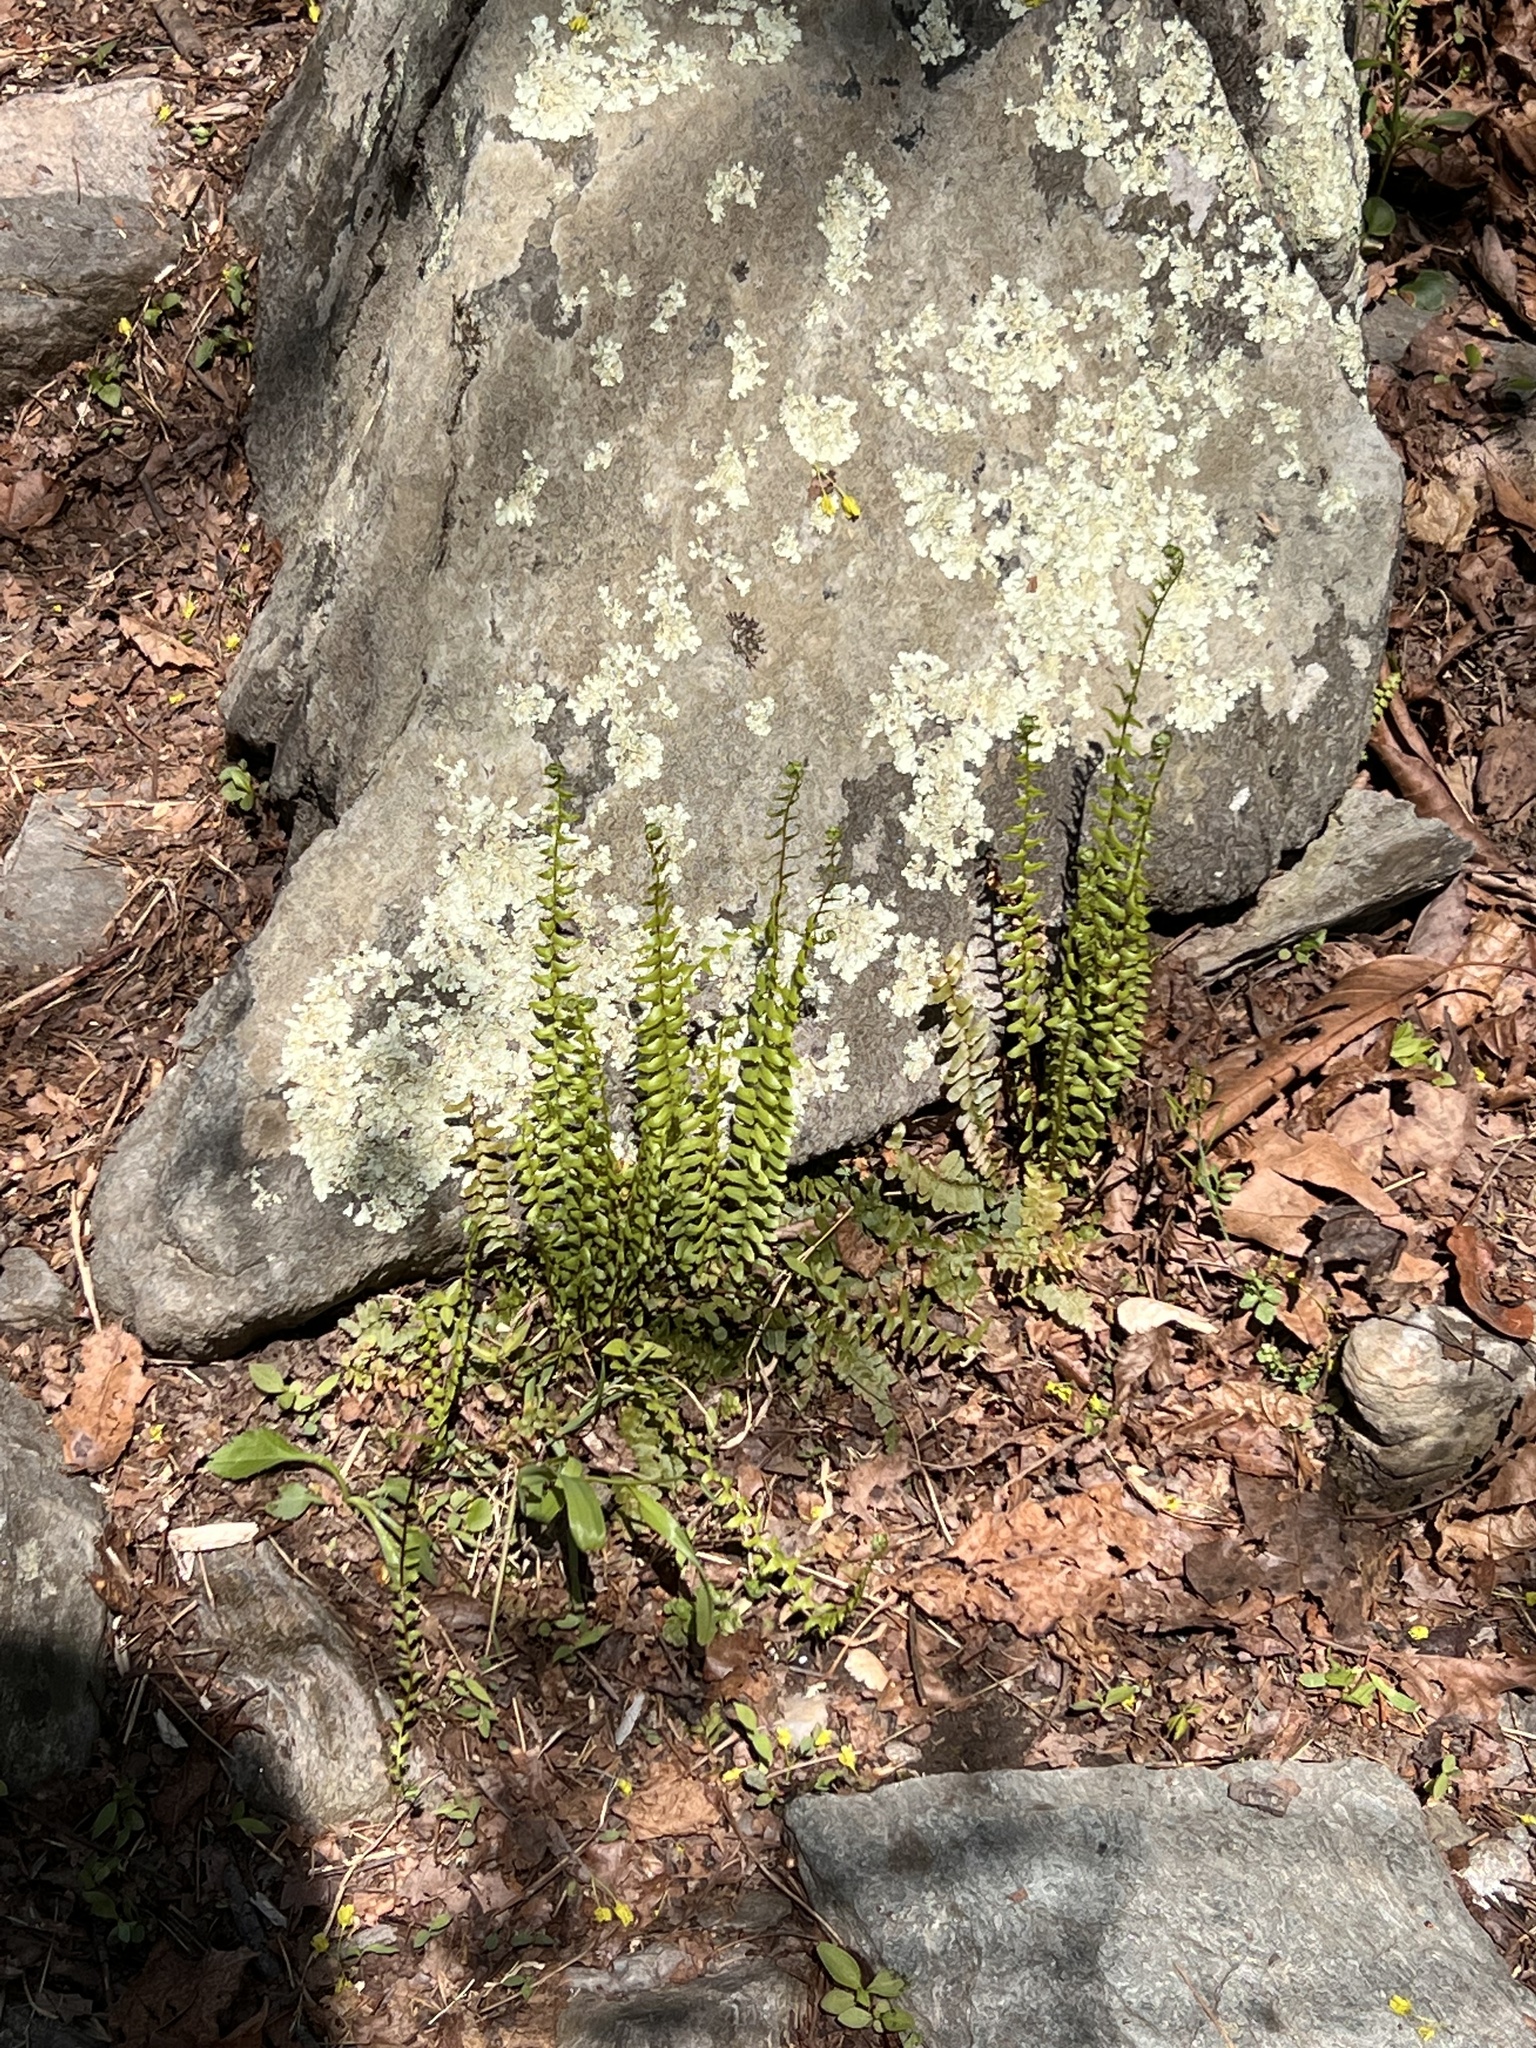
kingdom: Plantae
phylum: Tracheophyta
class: Polypodiopsida
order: Polypodiales
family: Aspleniaceae
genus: Asplenium
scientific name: Asplenium platyneuron
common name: Ebony spleenwort
